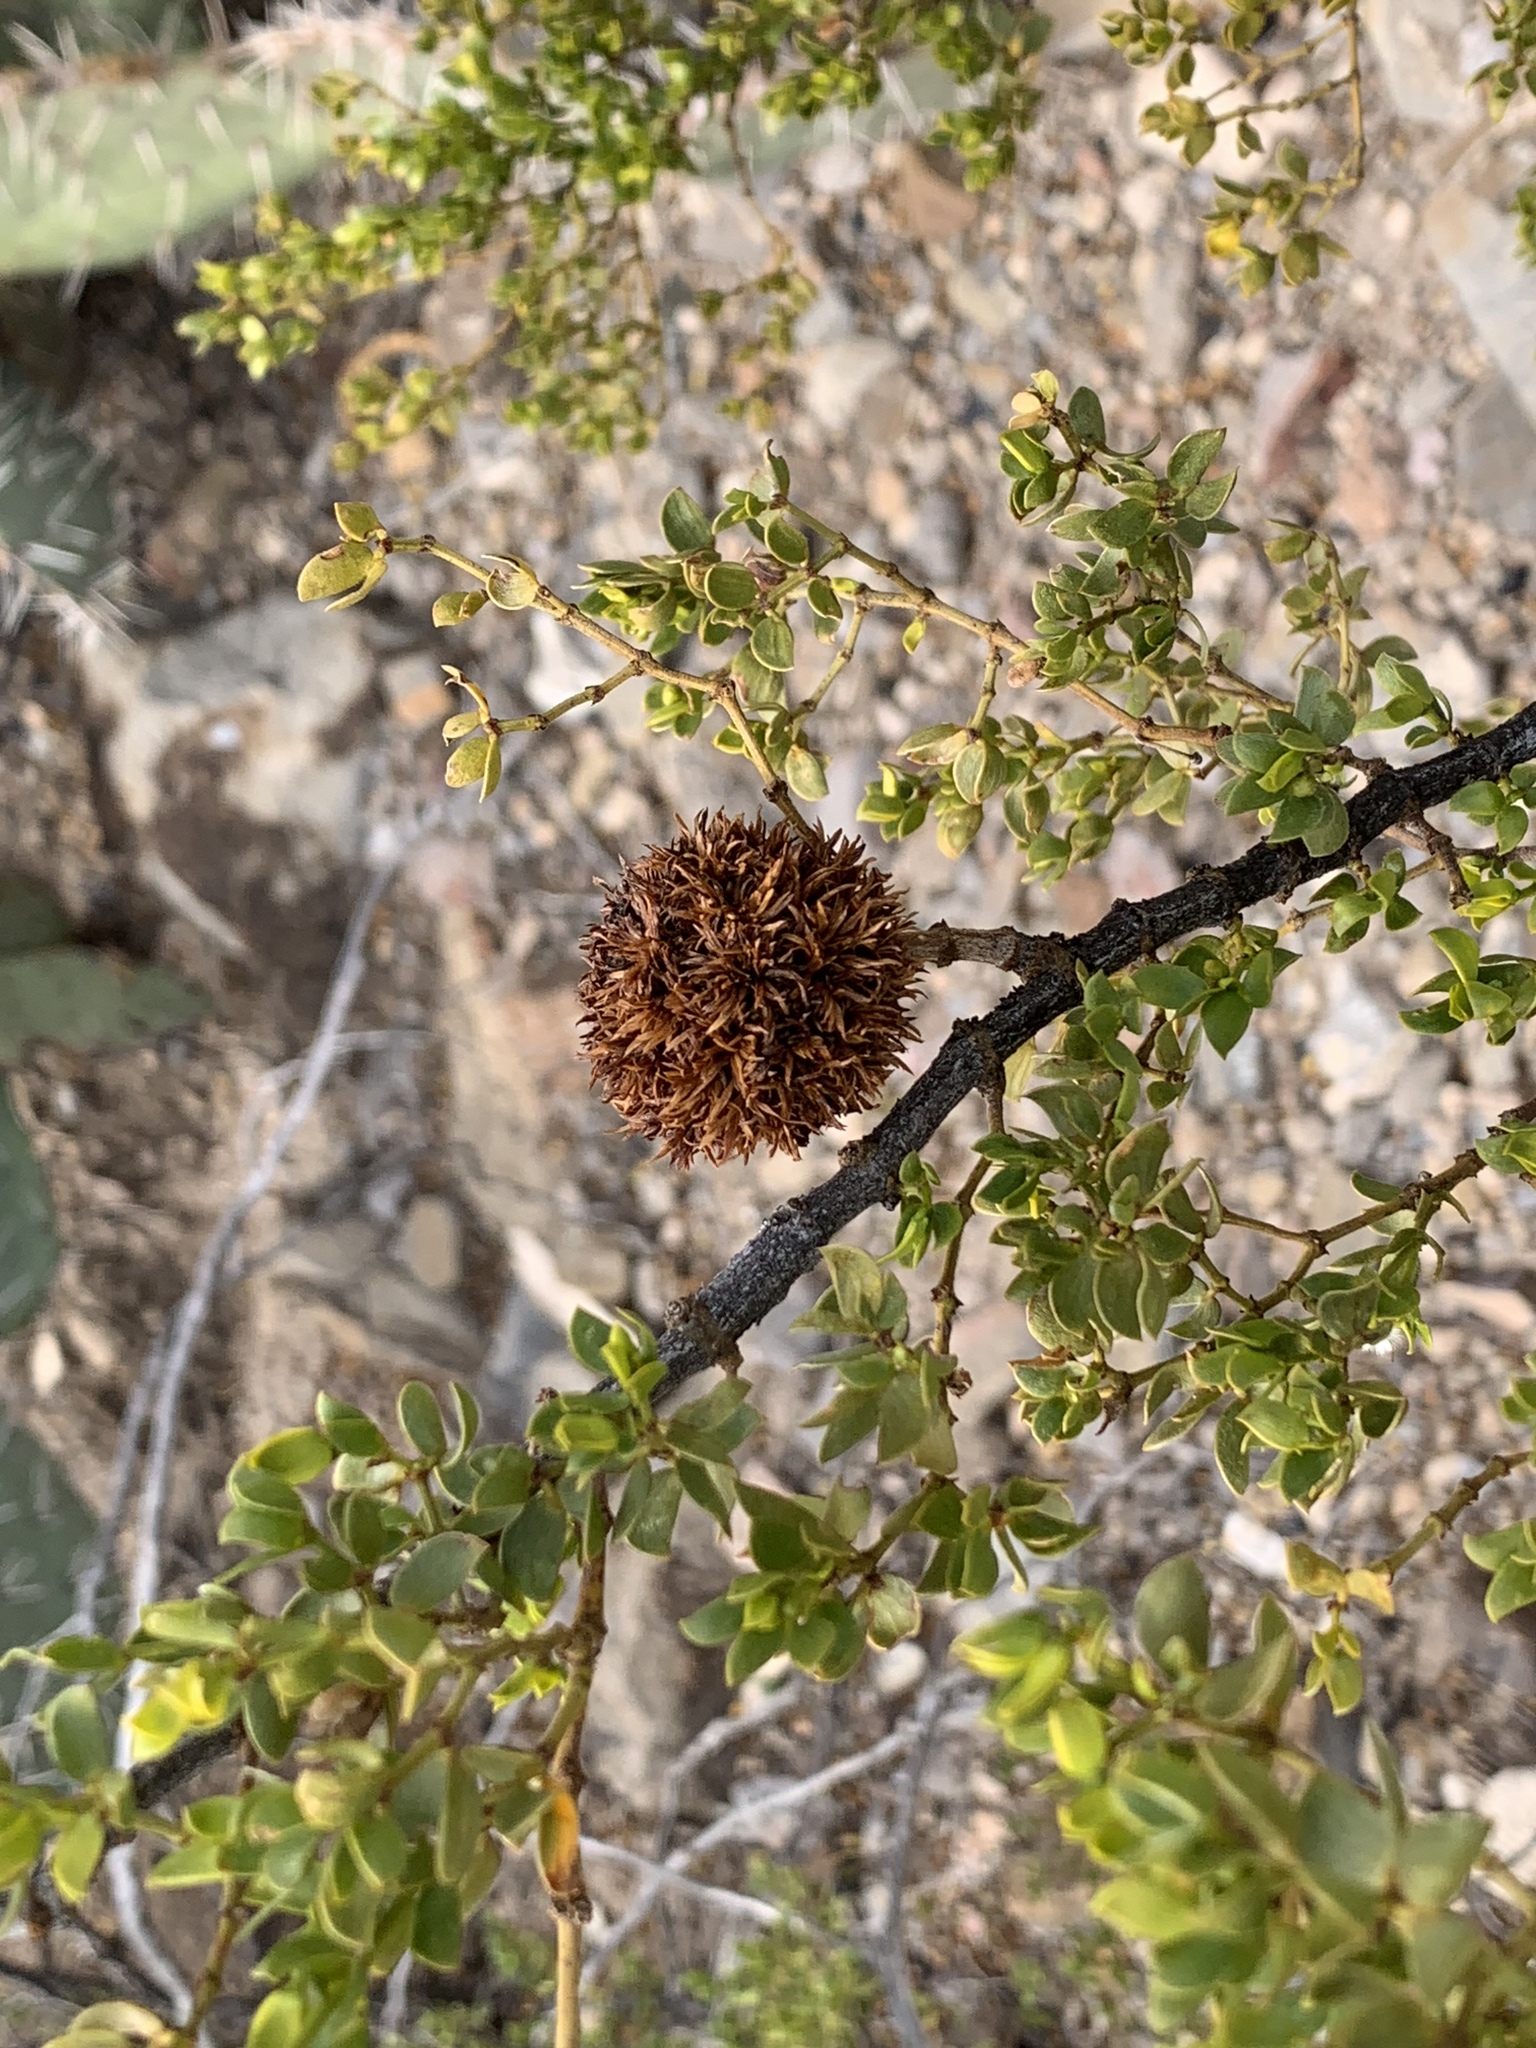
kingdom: Animalia
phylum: Arthropoda
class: Insecta
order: Diptera
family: Cecidomyiidae
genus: Asphondylia
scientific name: Asphondylia auripila
